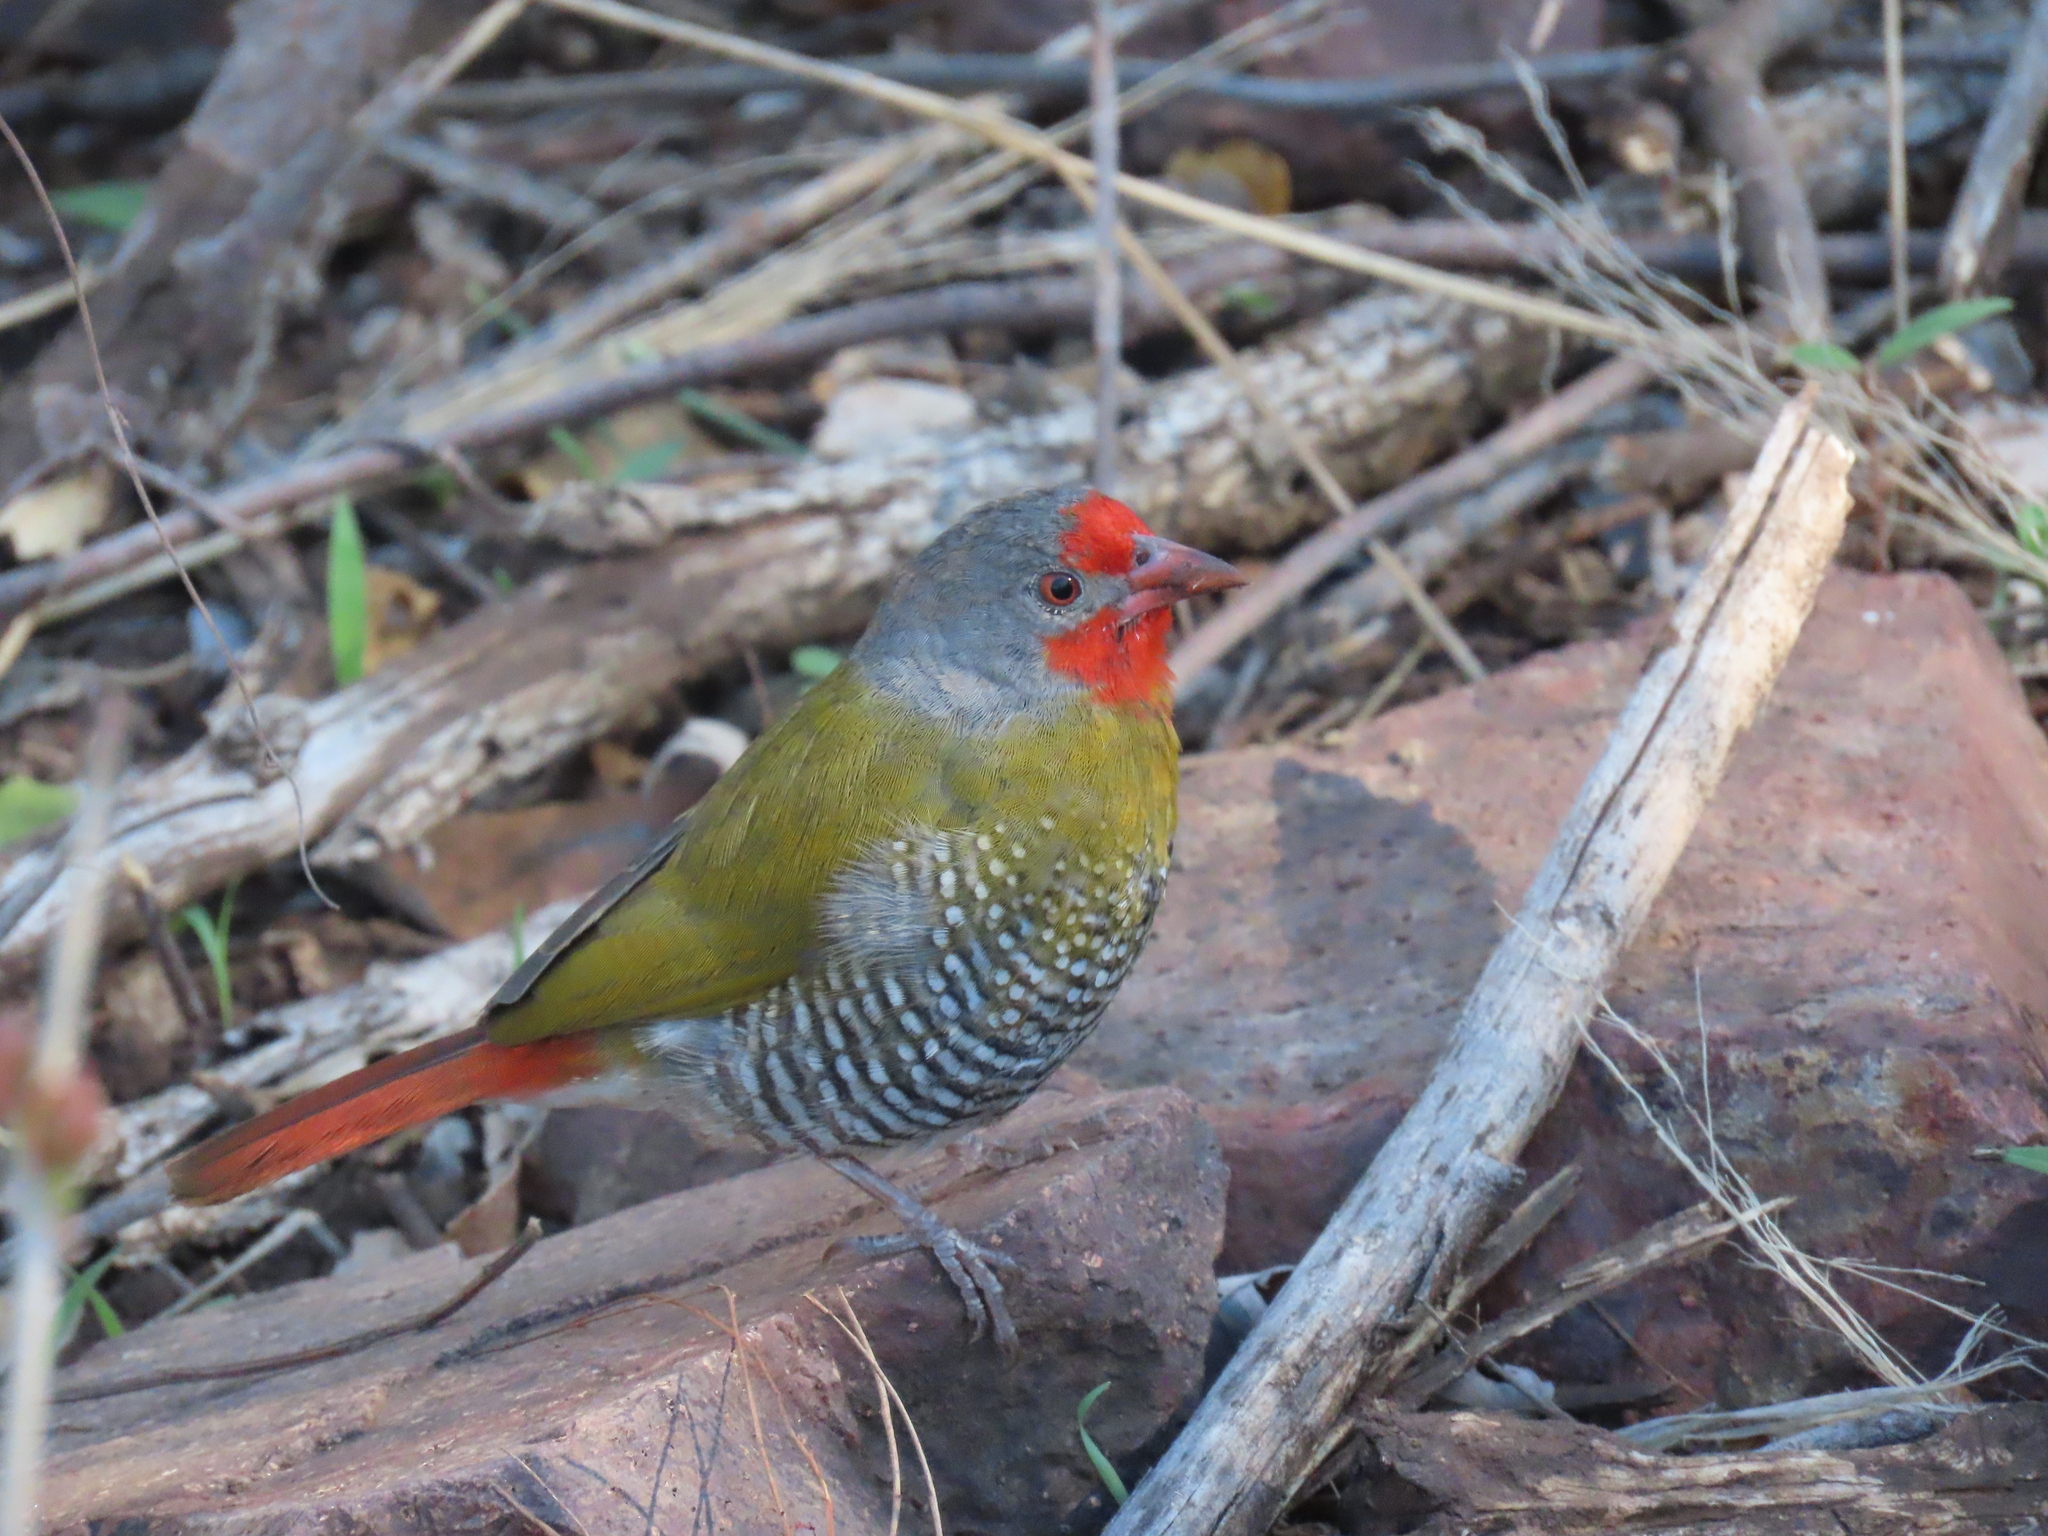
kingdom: Animalia
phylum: Chordata
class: Aves
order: Passeriformes
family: Estrildidae
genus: Pytilia
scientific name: Pytilia melba
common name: Green-winged pytilia
